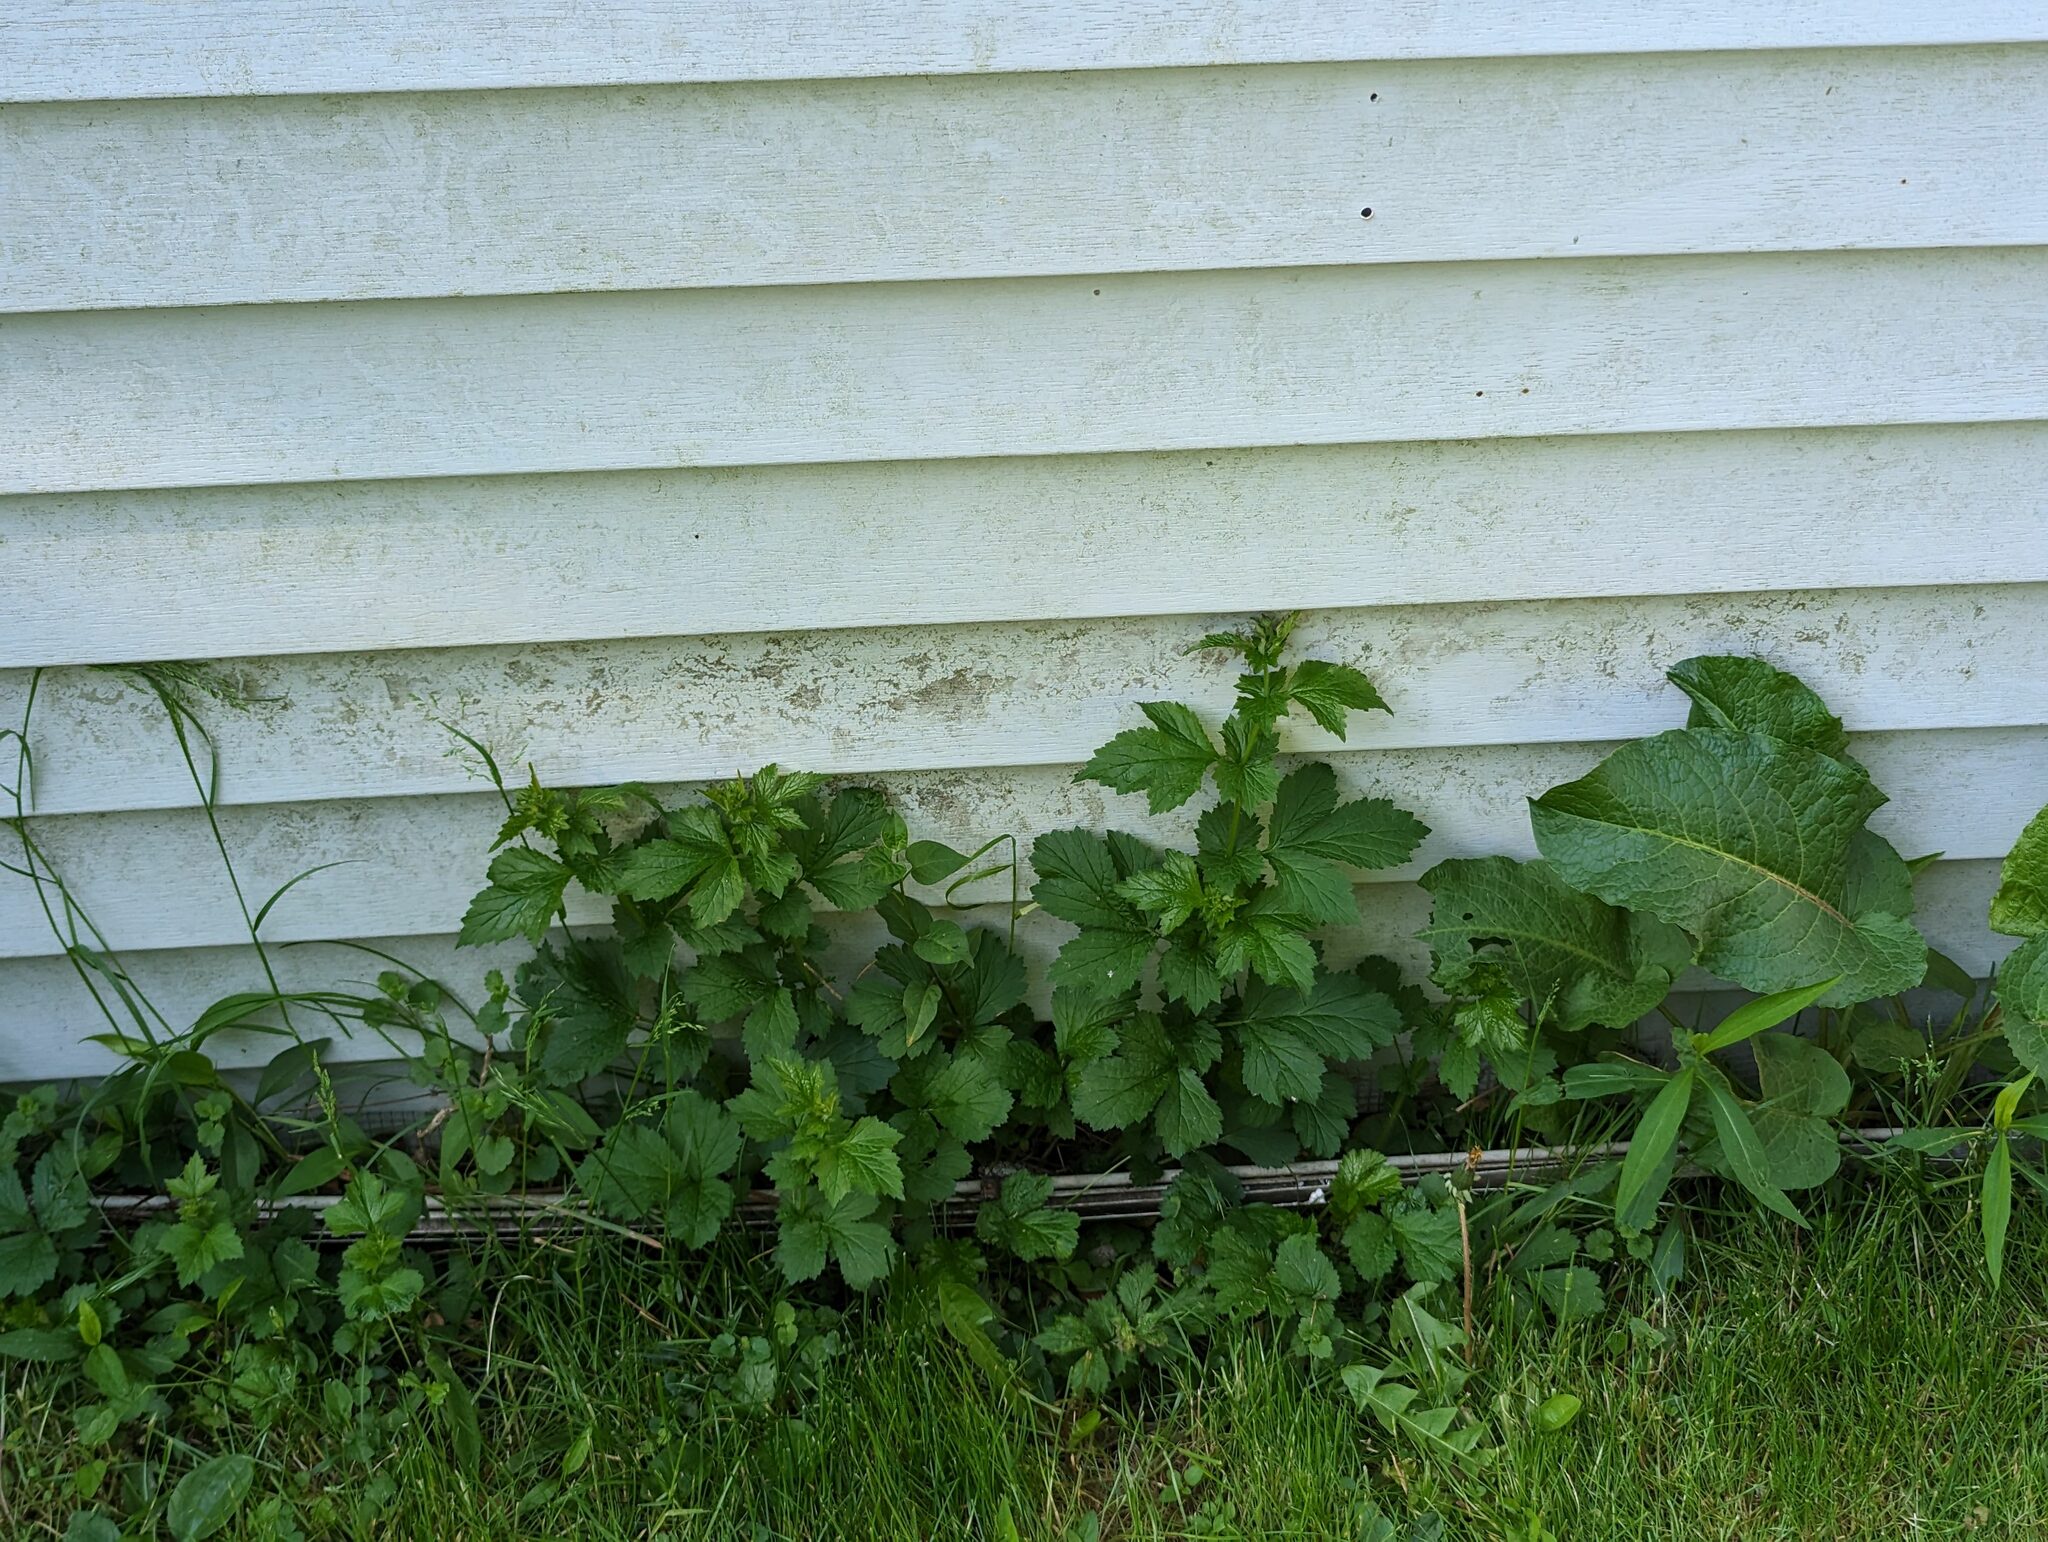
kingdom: Plantae
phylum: Tracheophyta
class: Magnoliopsida
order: Rosales
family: Rosaceae
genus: Geum
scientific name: Geum urbanum
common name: Wood avens
